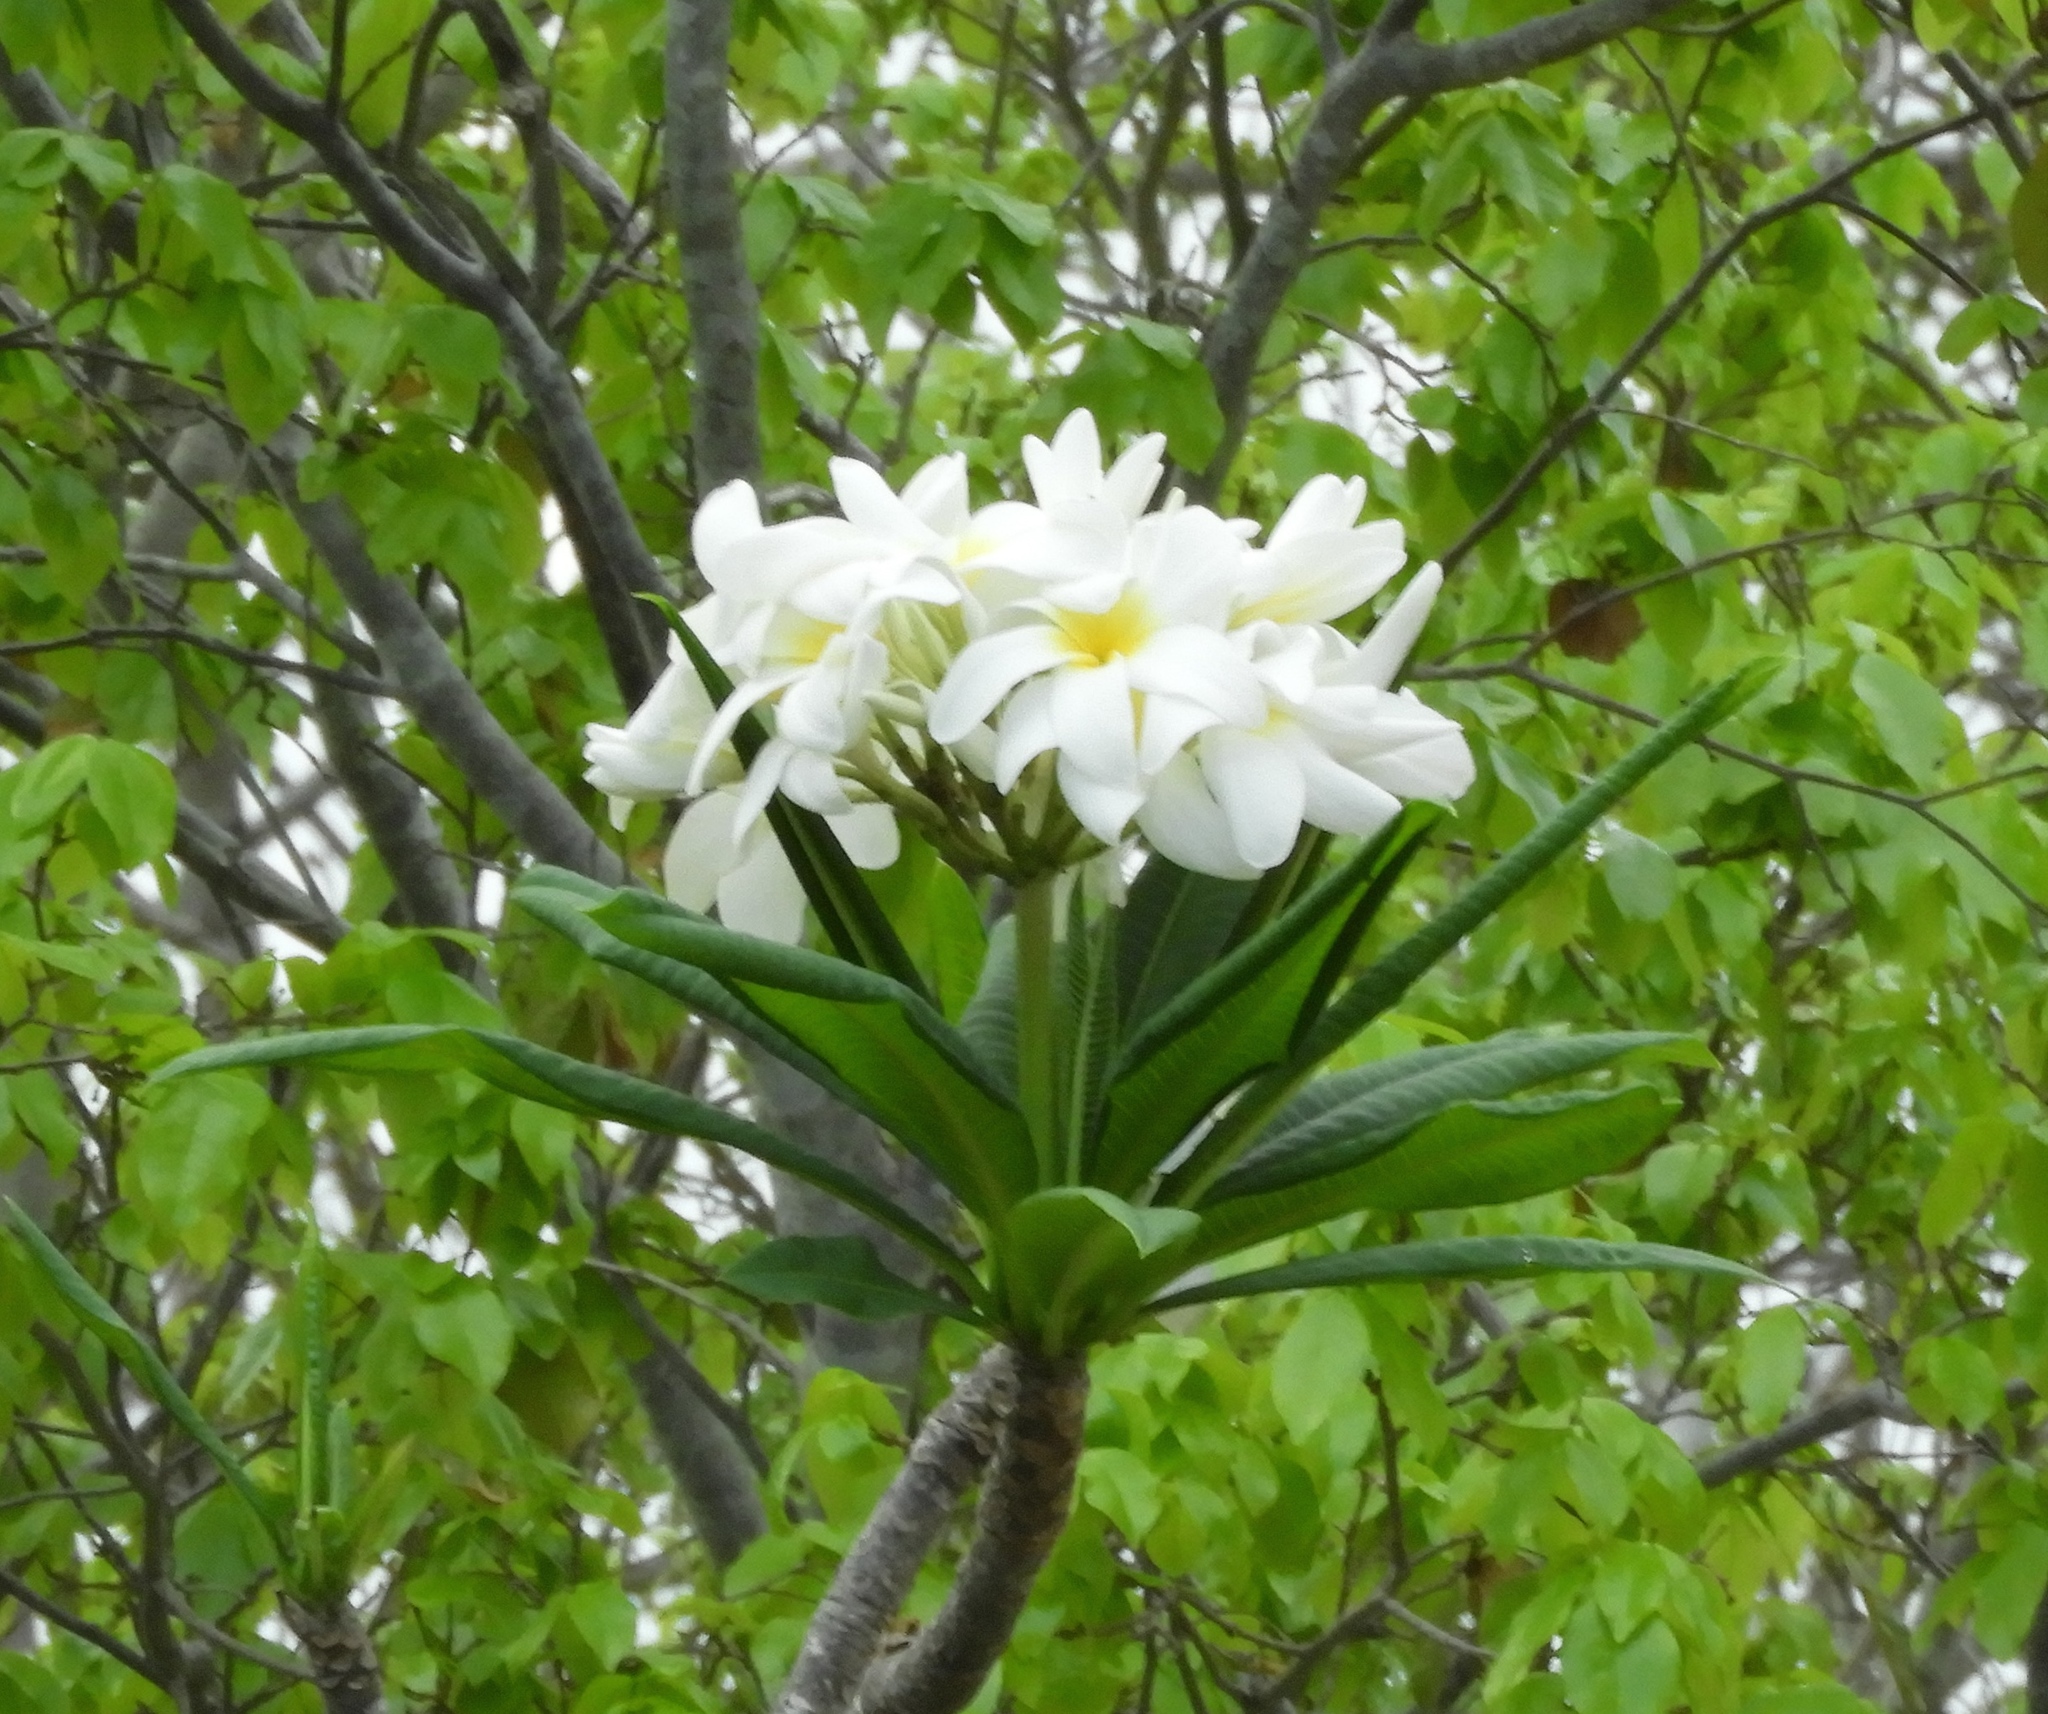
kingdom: Plantae
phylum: Tracheophyta
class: Magnoliopsida
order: Gentianales
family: Apocynaceae
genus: Plumeria
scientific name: Plumeria rubra
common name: Pagoda-tree
